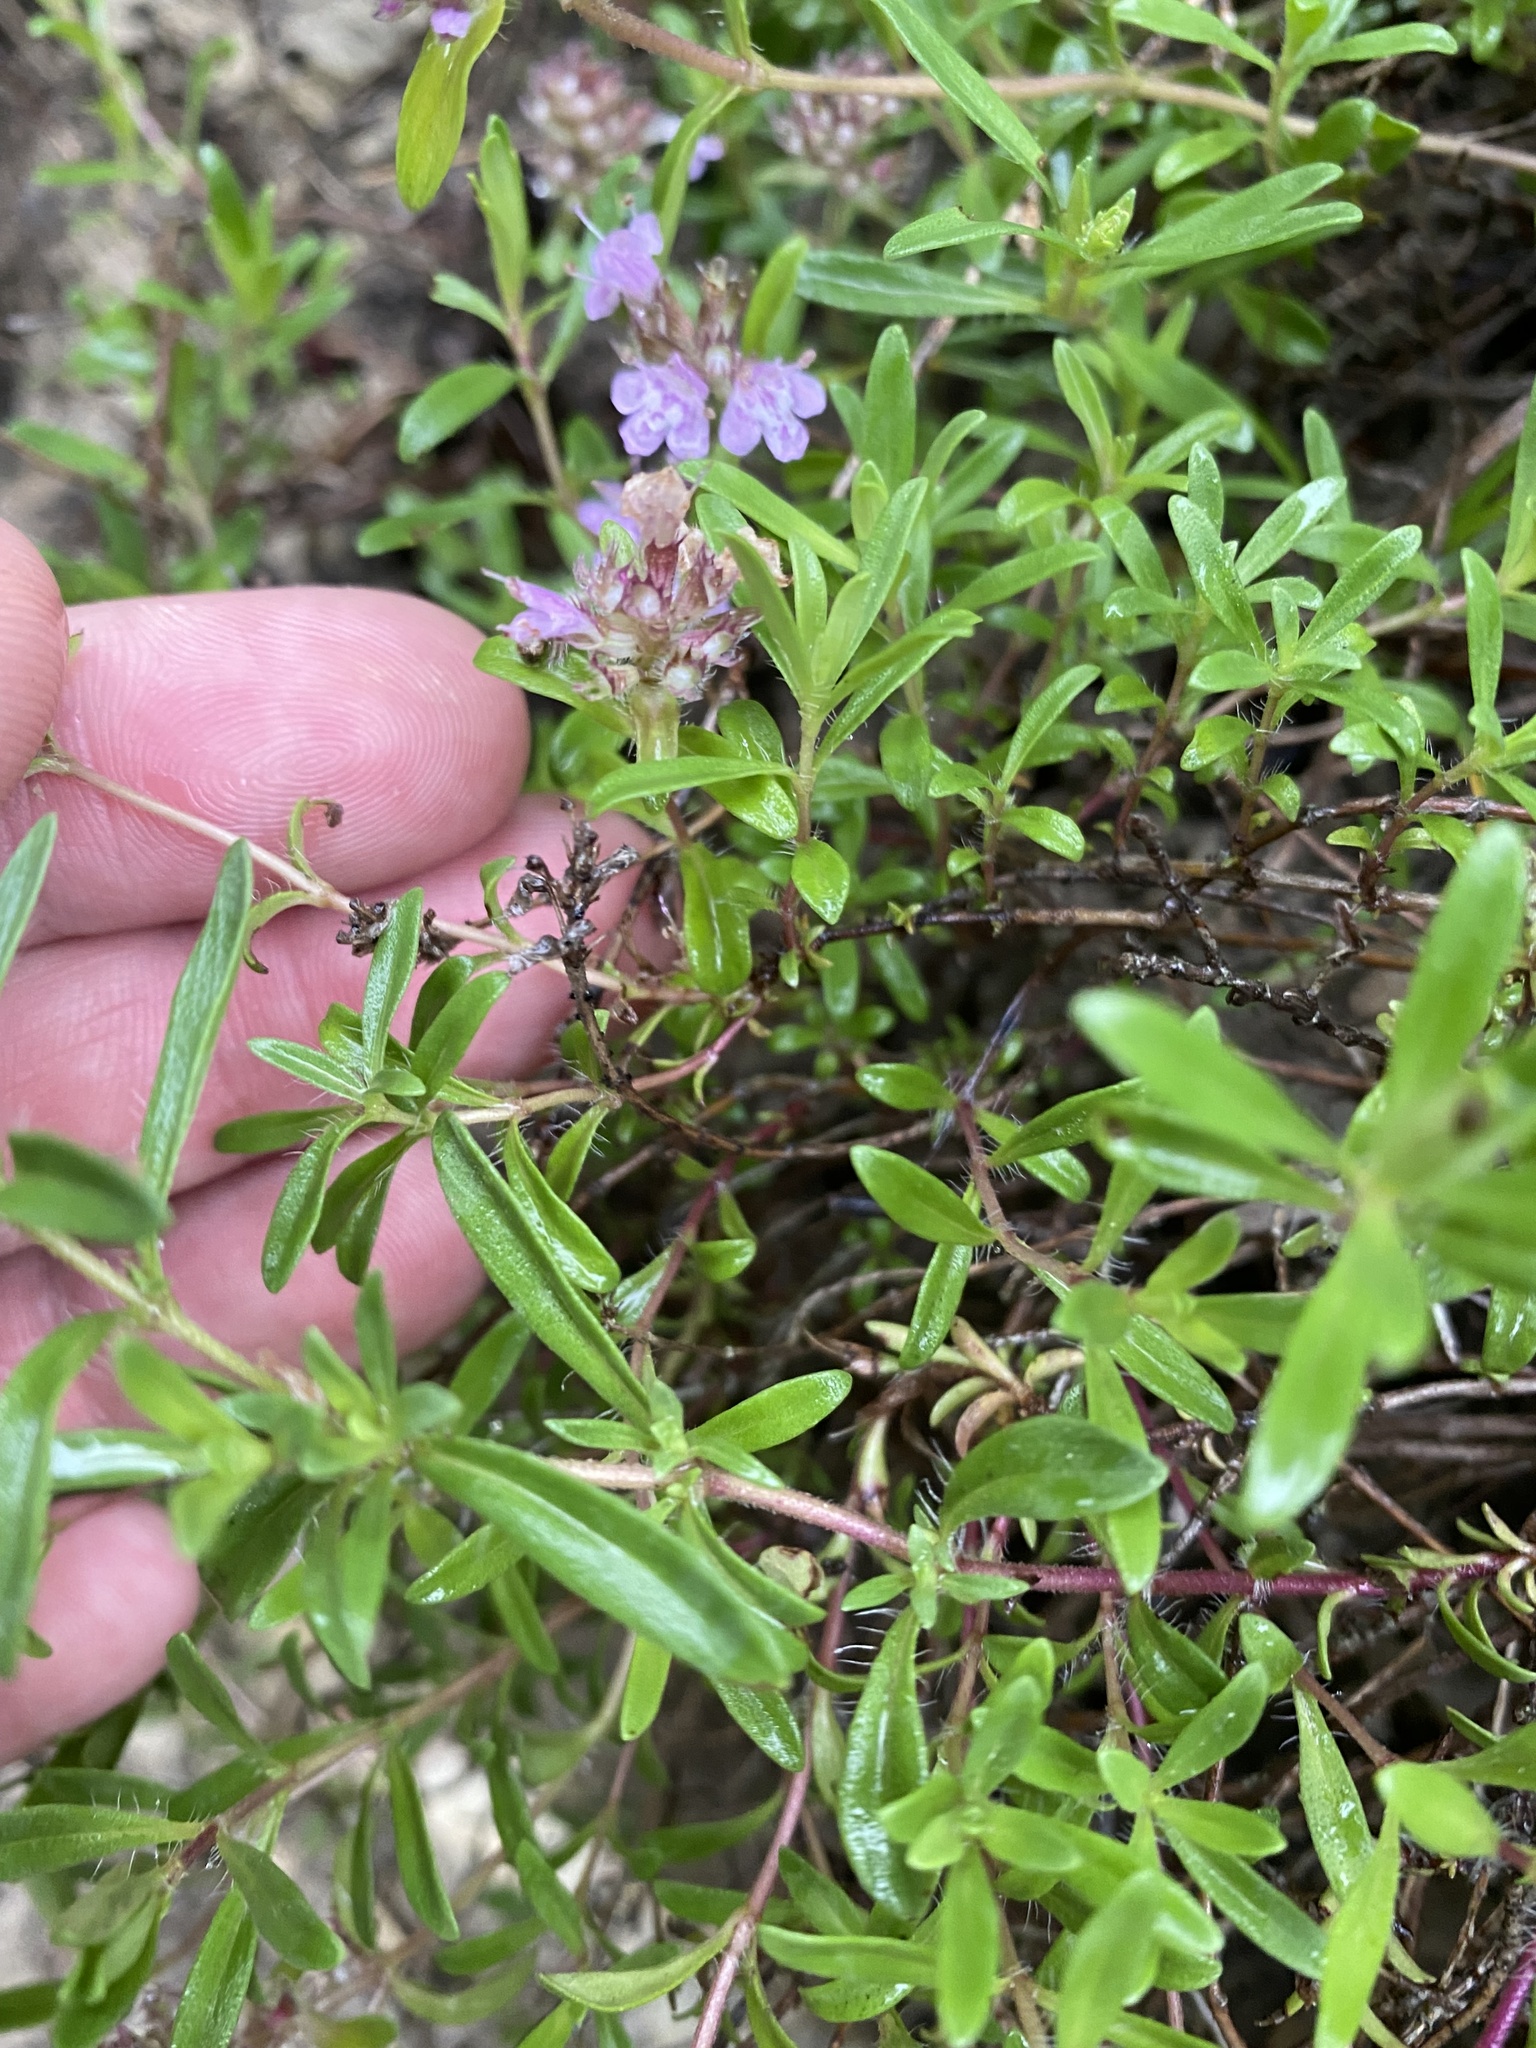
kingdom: Plantae
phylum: Tracheophyta
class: Magnoliopsida
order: Lamiales
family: Lamiaceae
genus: Thymus
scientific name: Thymus pannonicus
